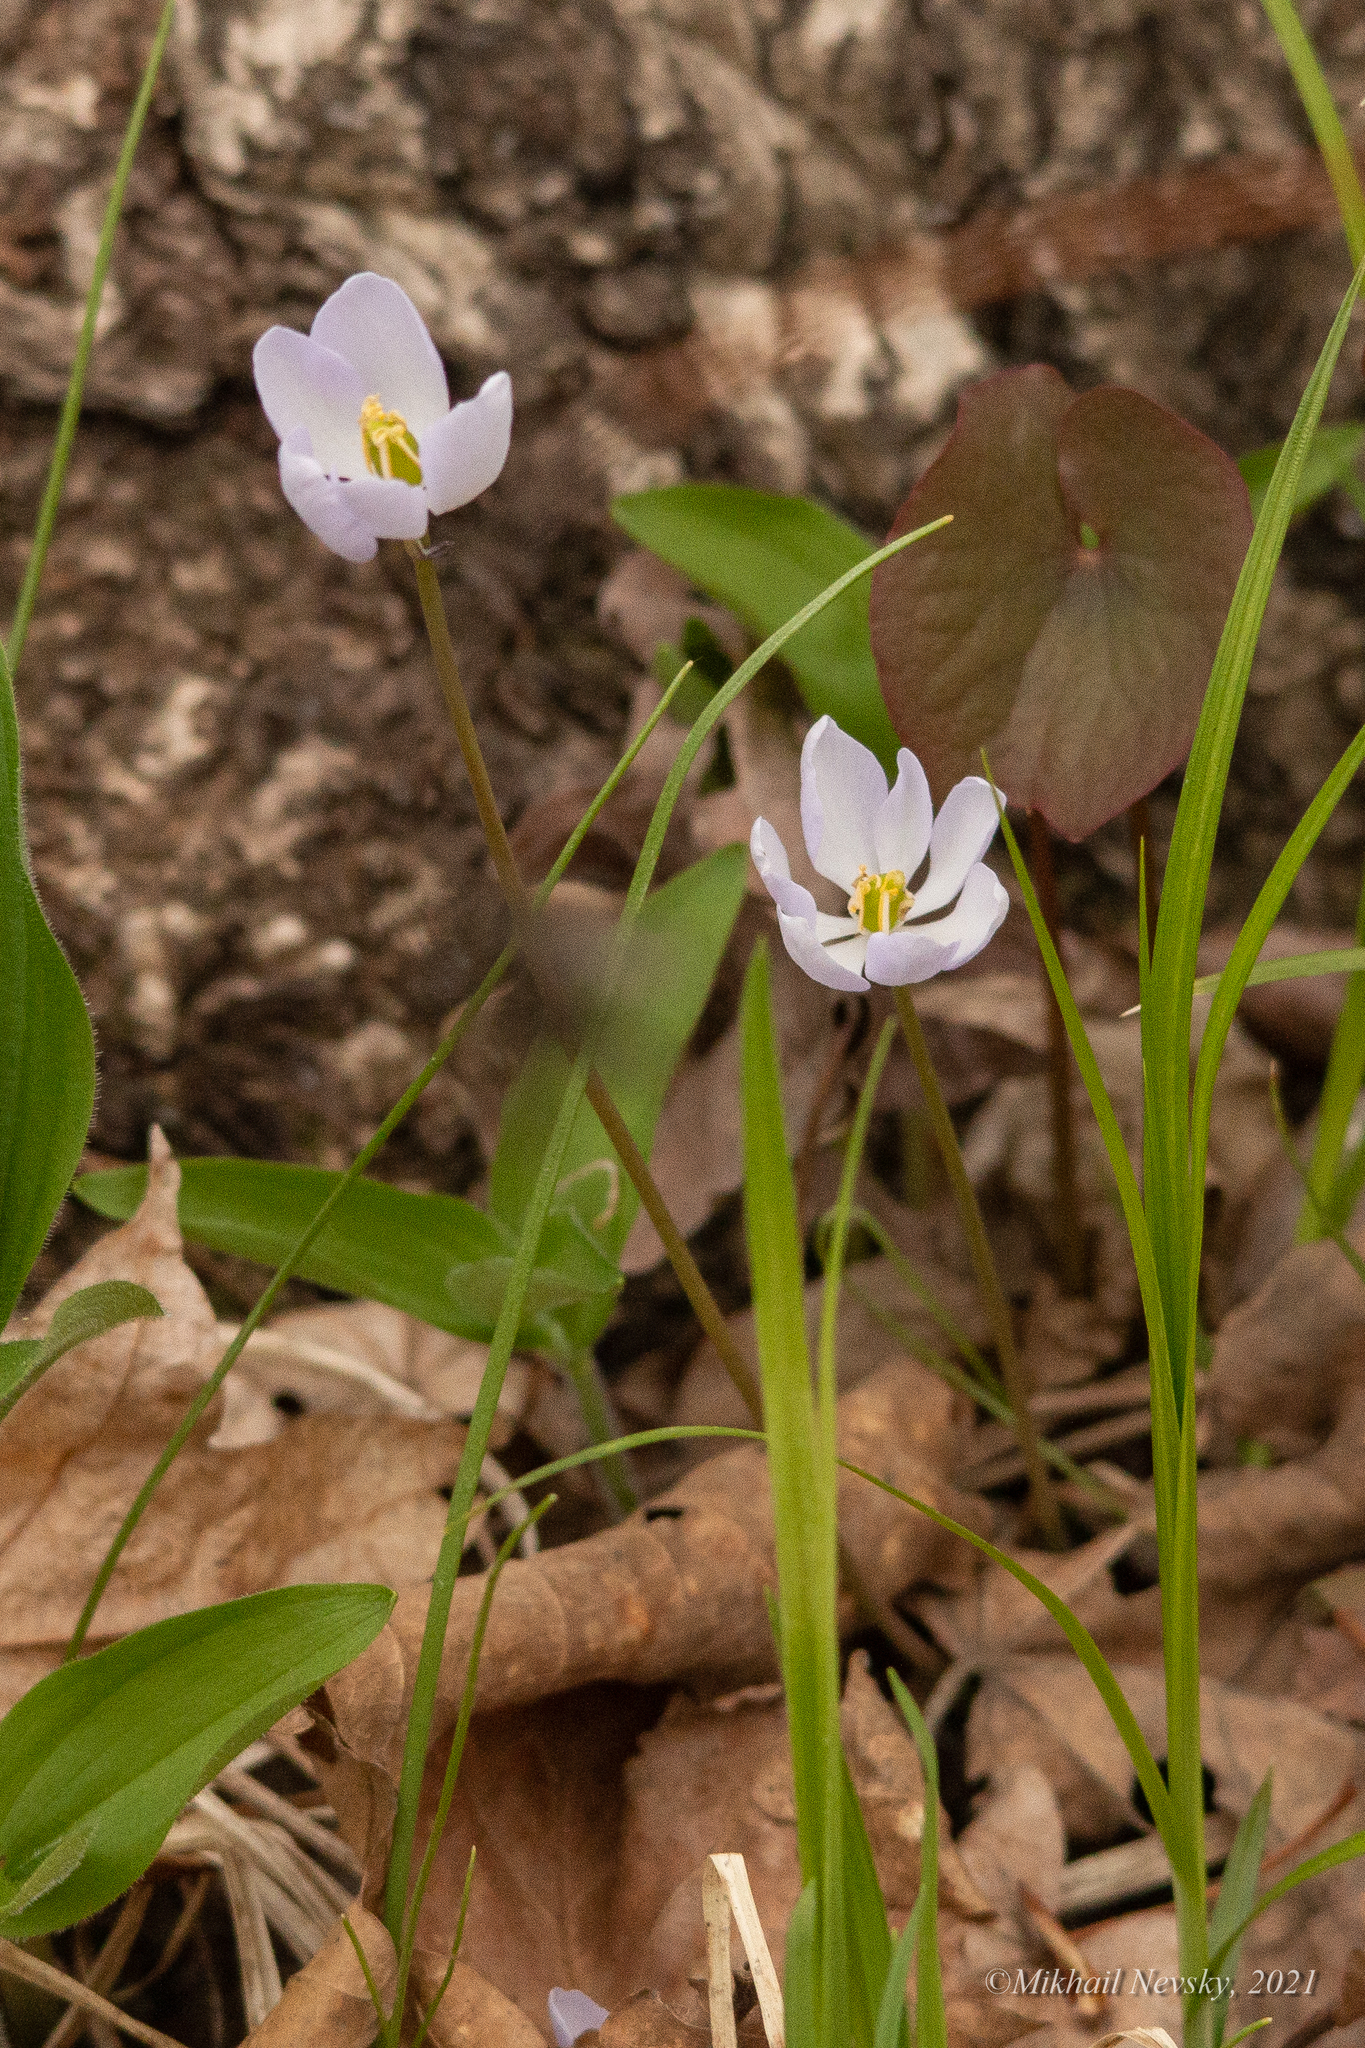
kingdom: Plantae
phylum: Tracheophyta
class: Magnoliopsida
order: Ranunculales
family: Berberidaceae
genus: Plagiorhegma
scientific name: Plagiorhegma dubium
